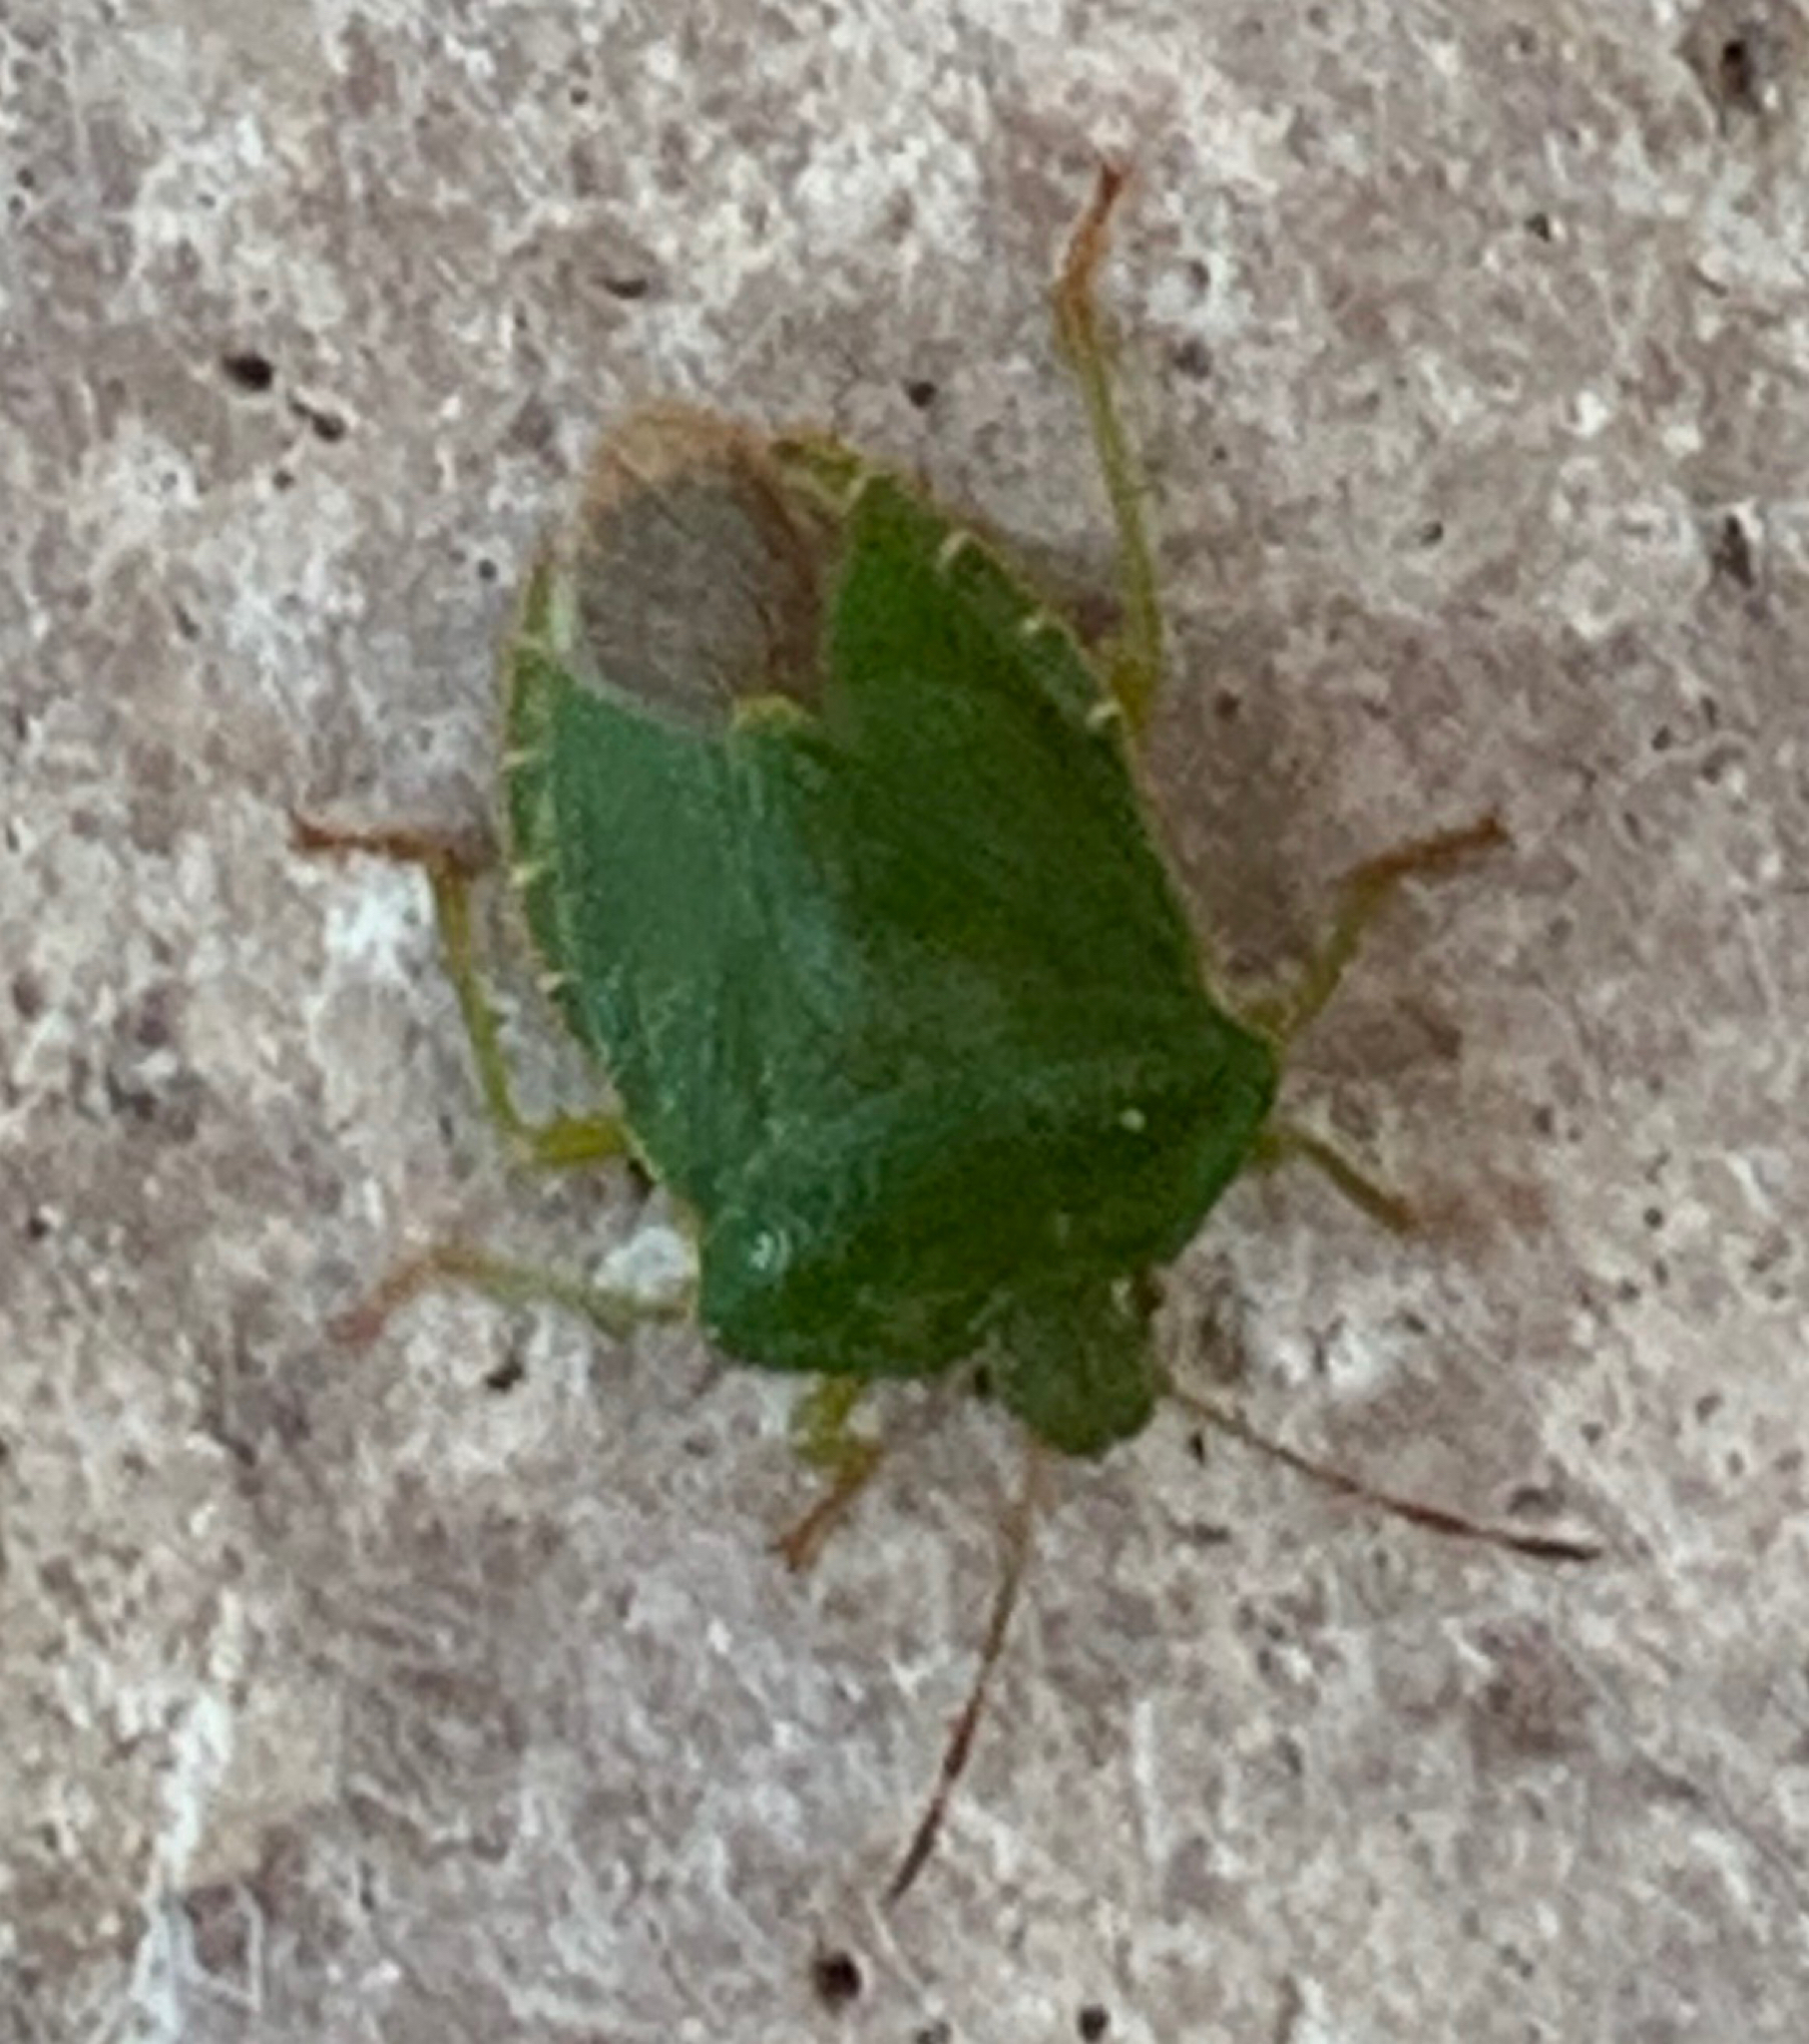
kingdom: Animalia
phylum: Arthropoda
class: Insecta
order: Hemiptera
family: Pentatomidae
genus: Palomena
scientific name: Palomena prasina
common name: Green shieldbug
